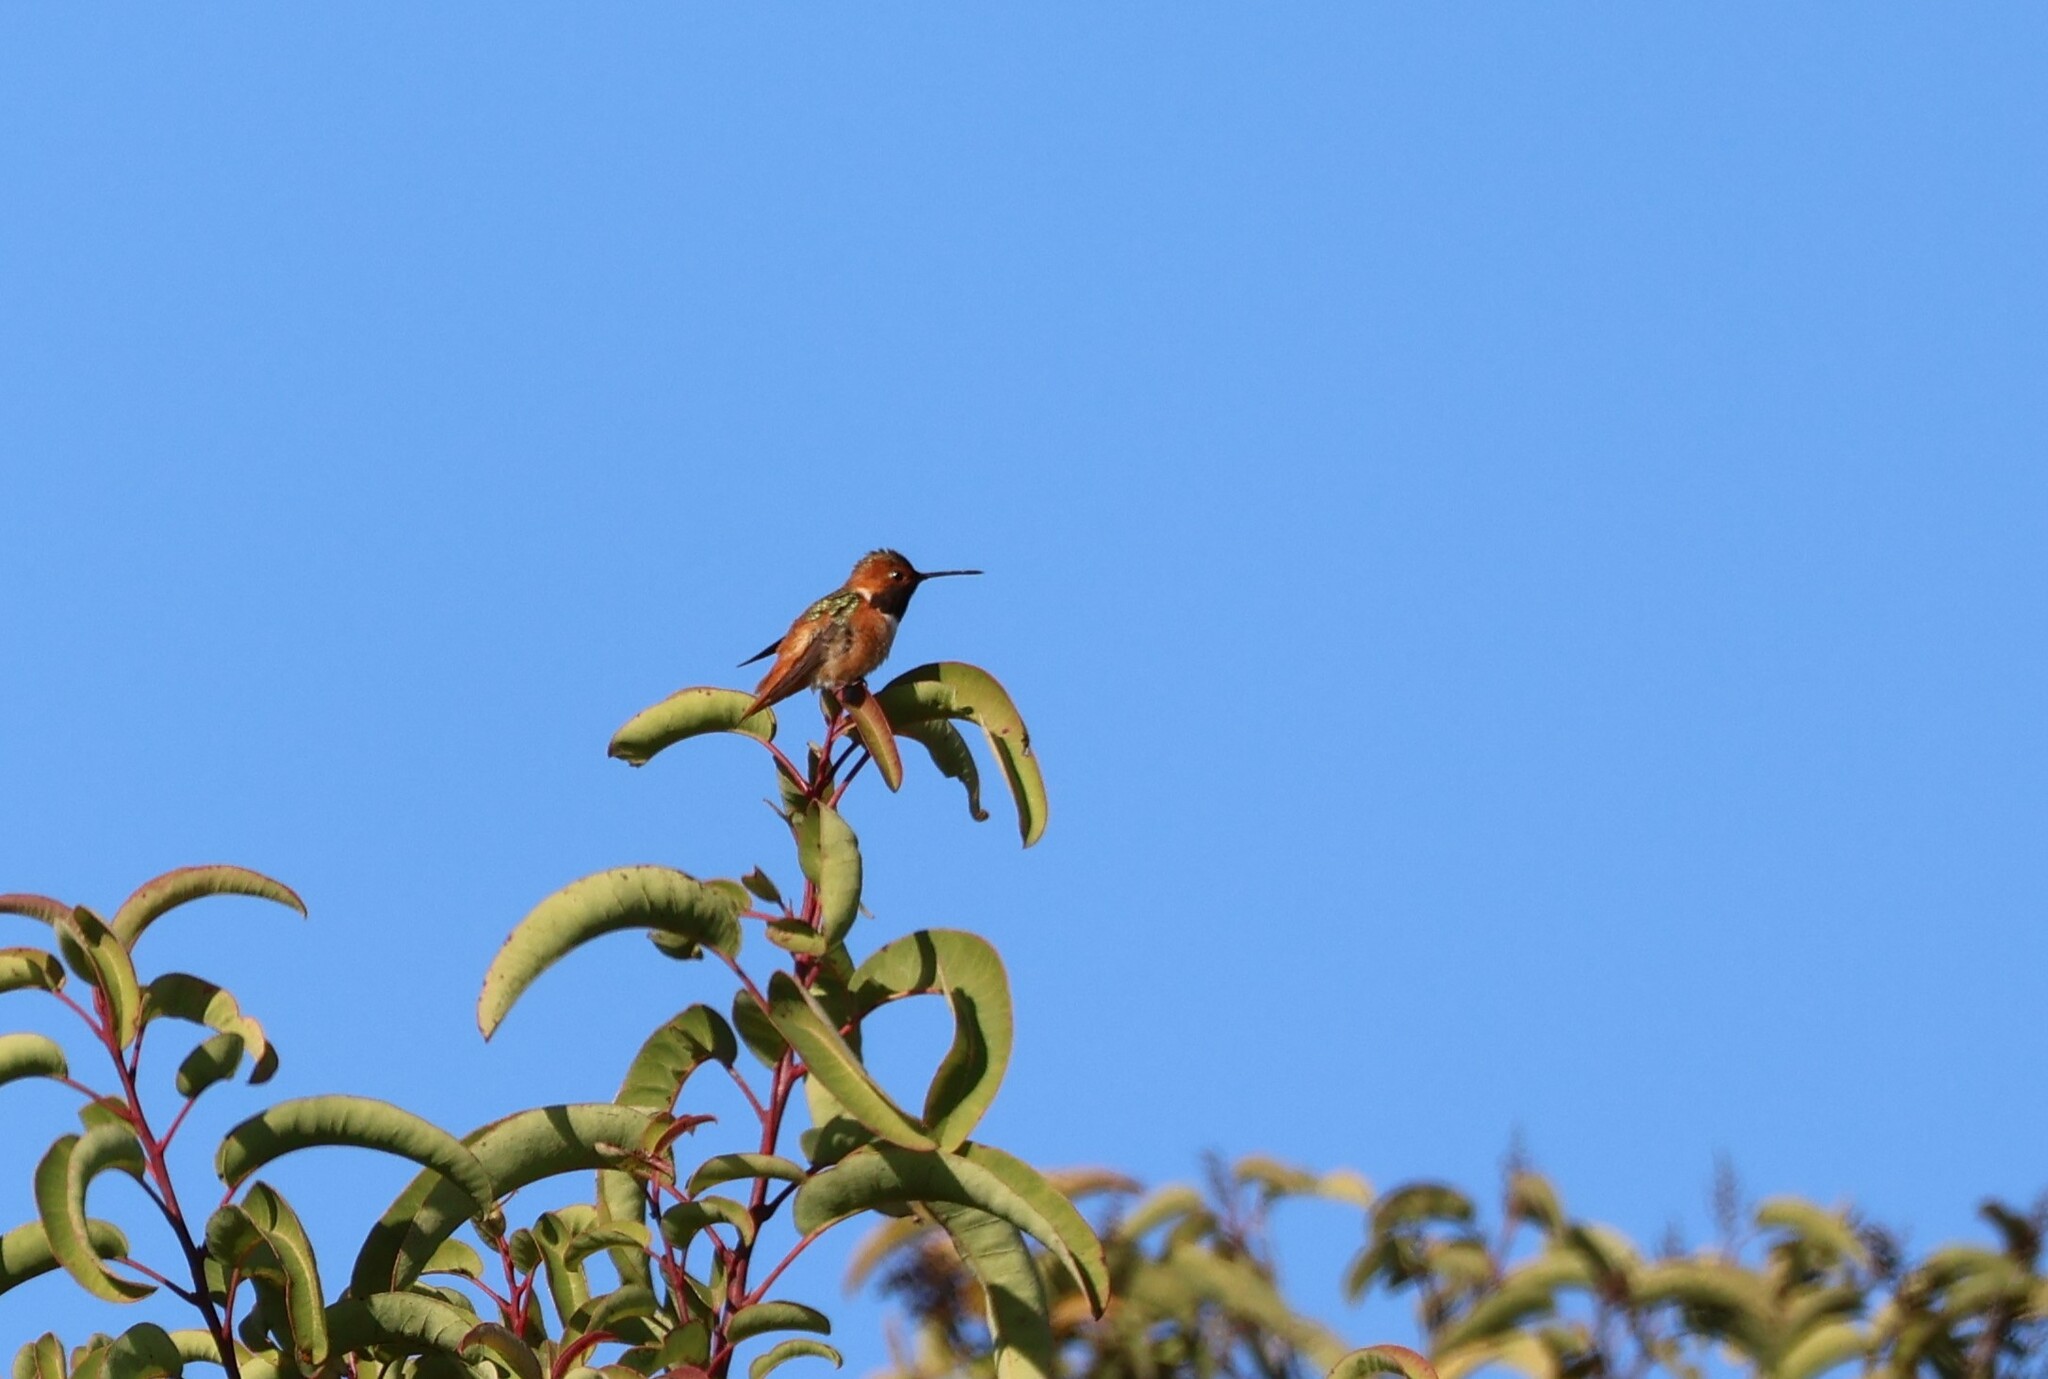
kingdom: Animalia
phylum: Chordata
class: Aves
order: Apodiformes
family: Trochilidae
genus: Selasphorus
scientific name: Selasphorus sasin
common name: Allen's hummingbird
